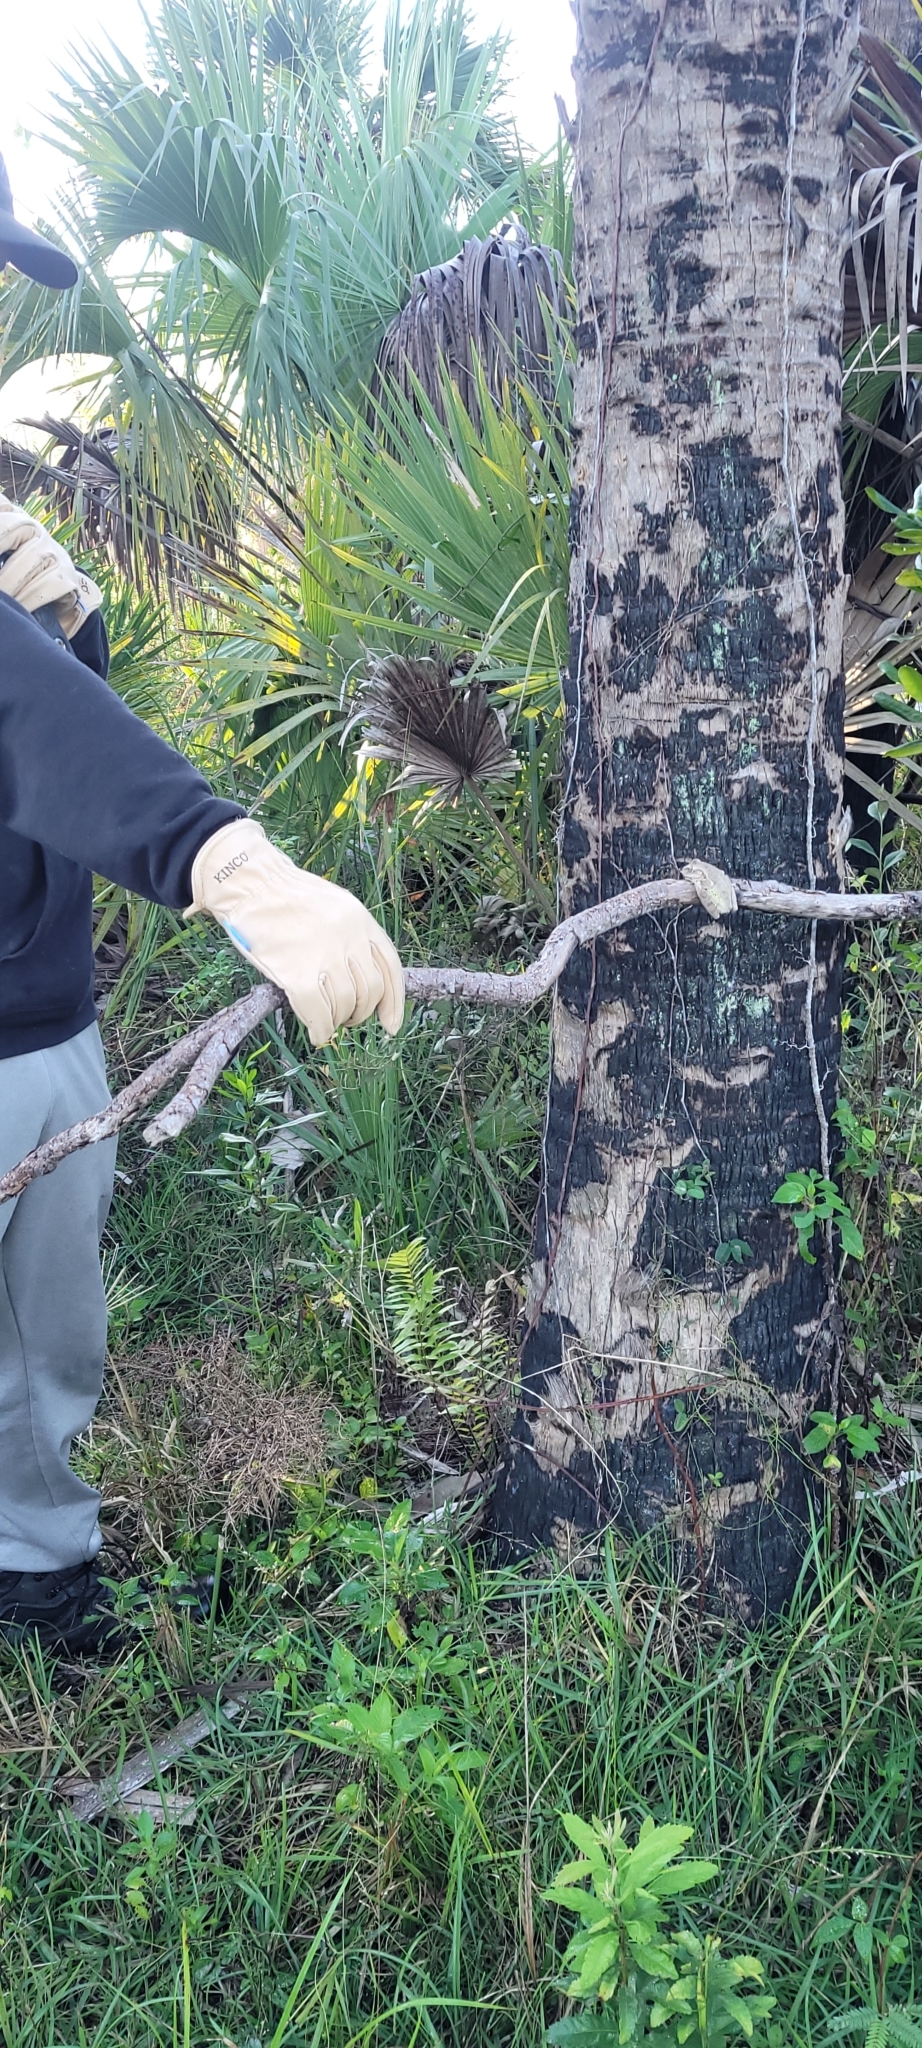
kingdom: Animalia
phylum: Chordata
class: Amphibia
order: Anura
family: Hylidae
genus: Osteopilus
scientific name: Osteopilus septentrionalis
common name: Cuban treefrog
